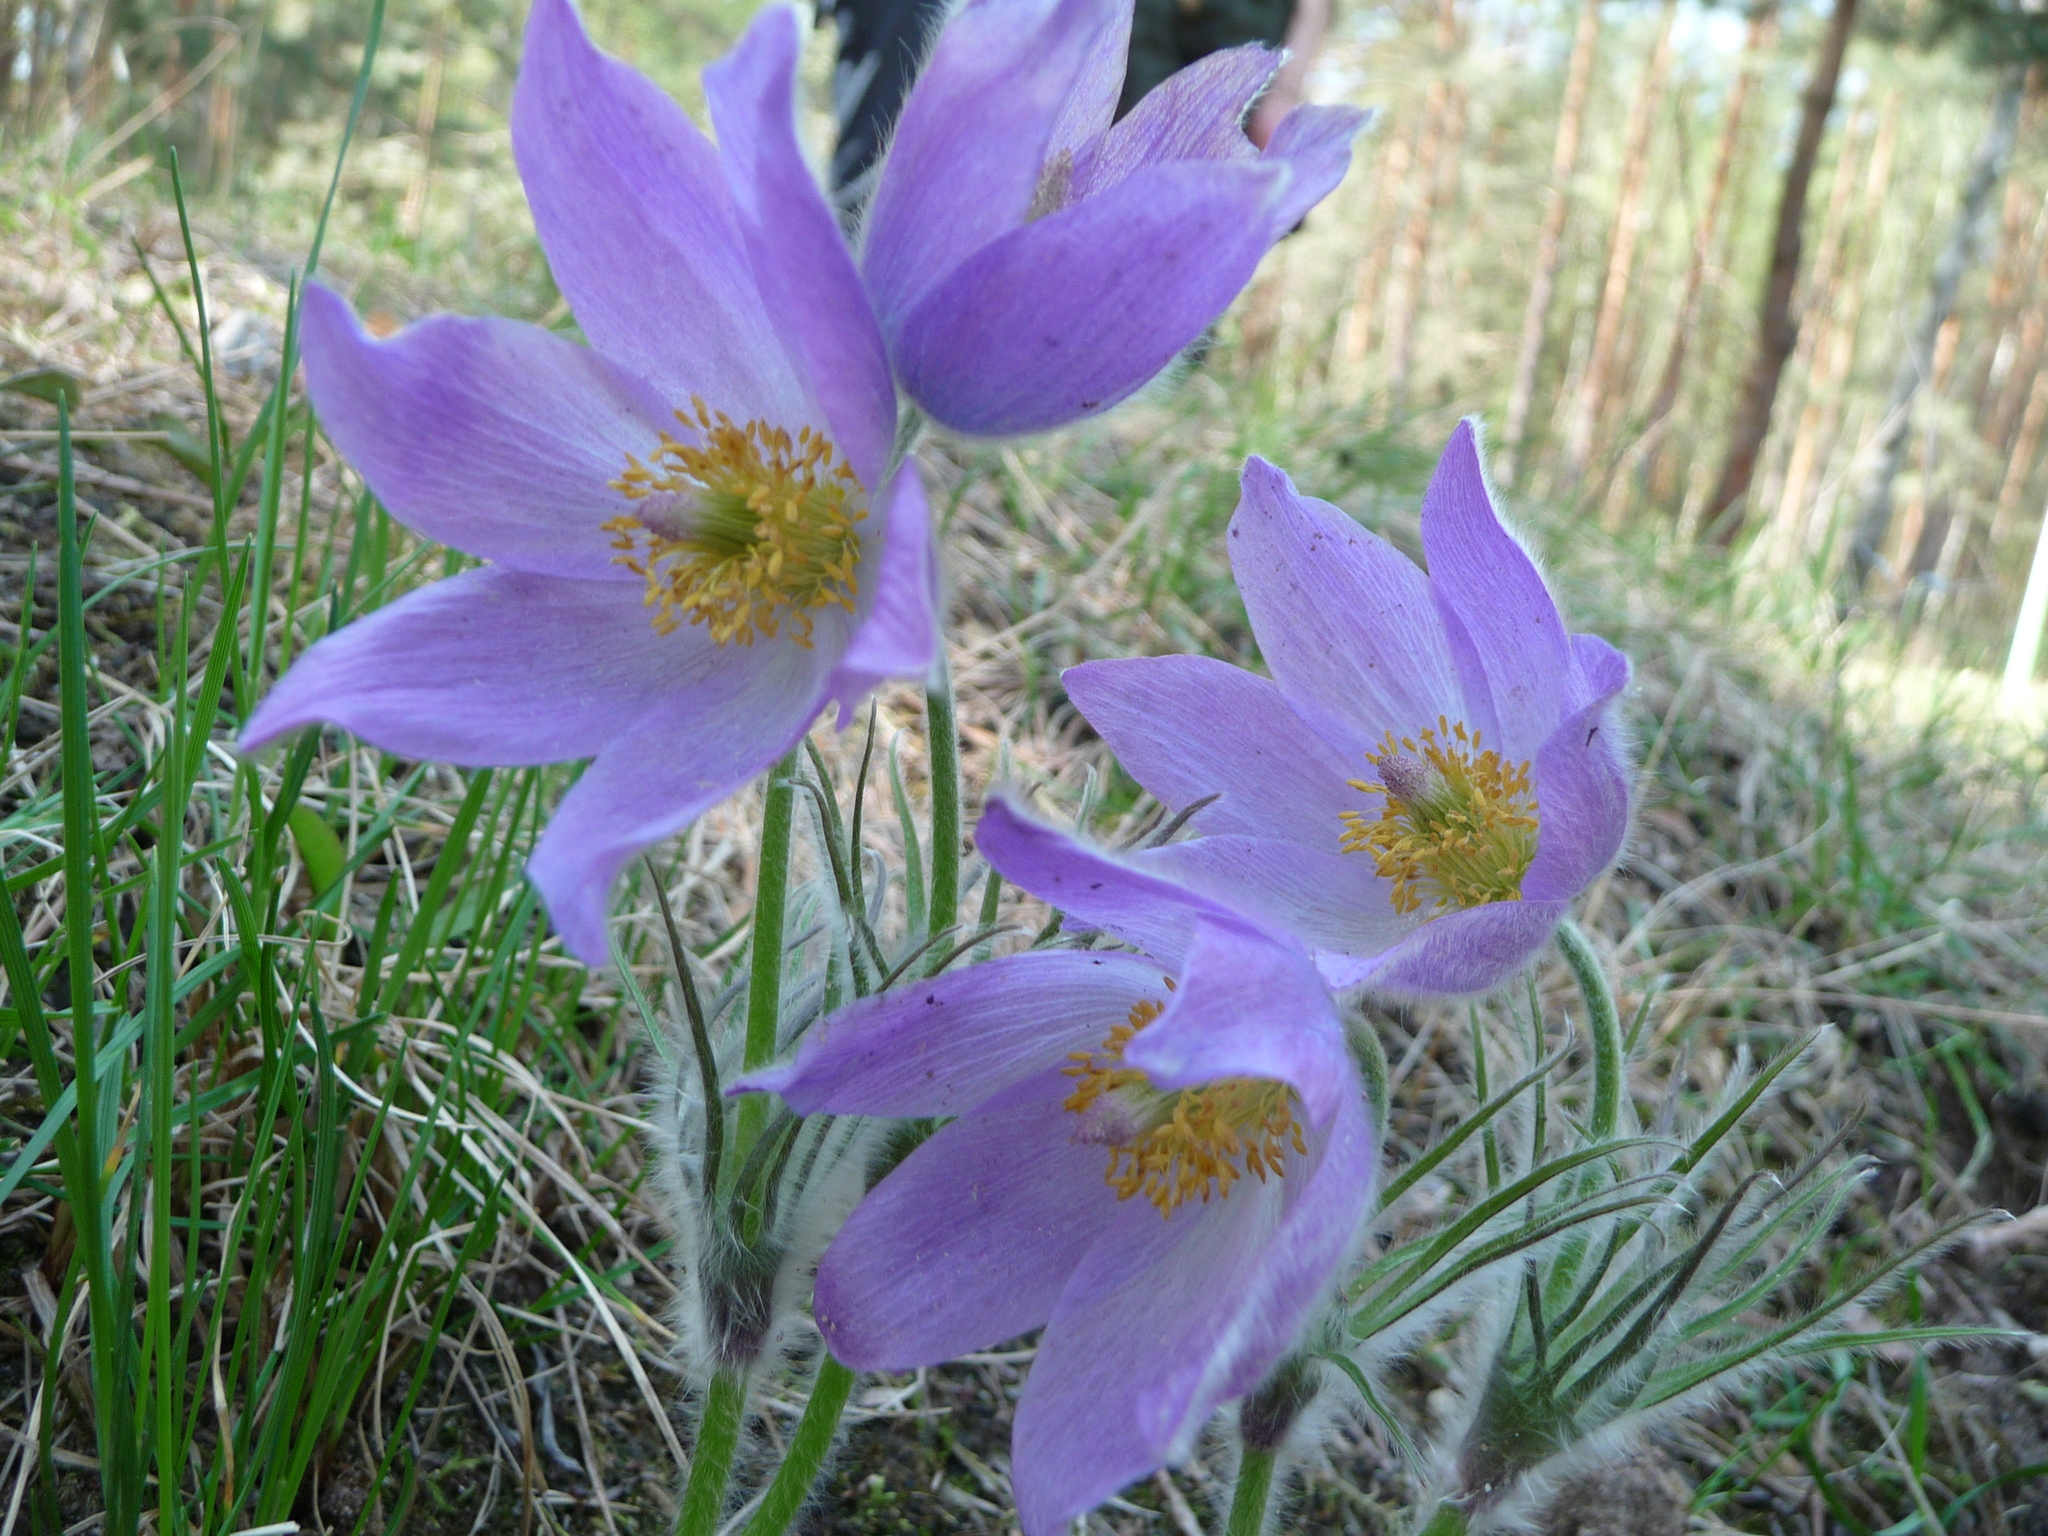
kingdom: Plantae
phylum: Tracheophyta
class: Magnoliopsida
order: Ranunculales
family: Ranunculaceae
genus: Pulsatilla
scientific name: Pulsatilla patens
